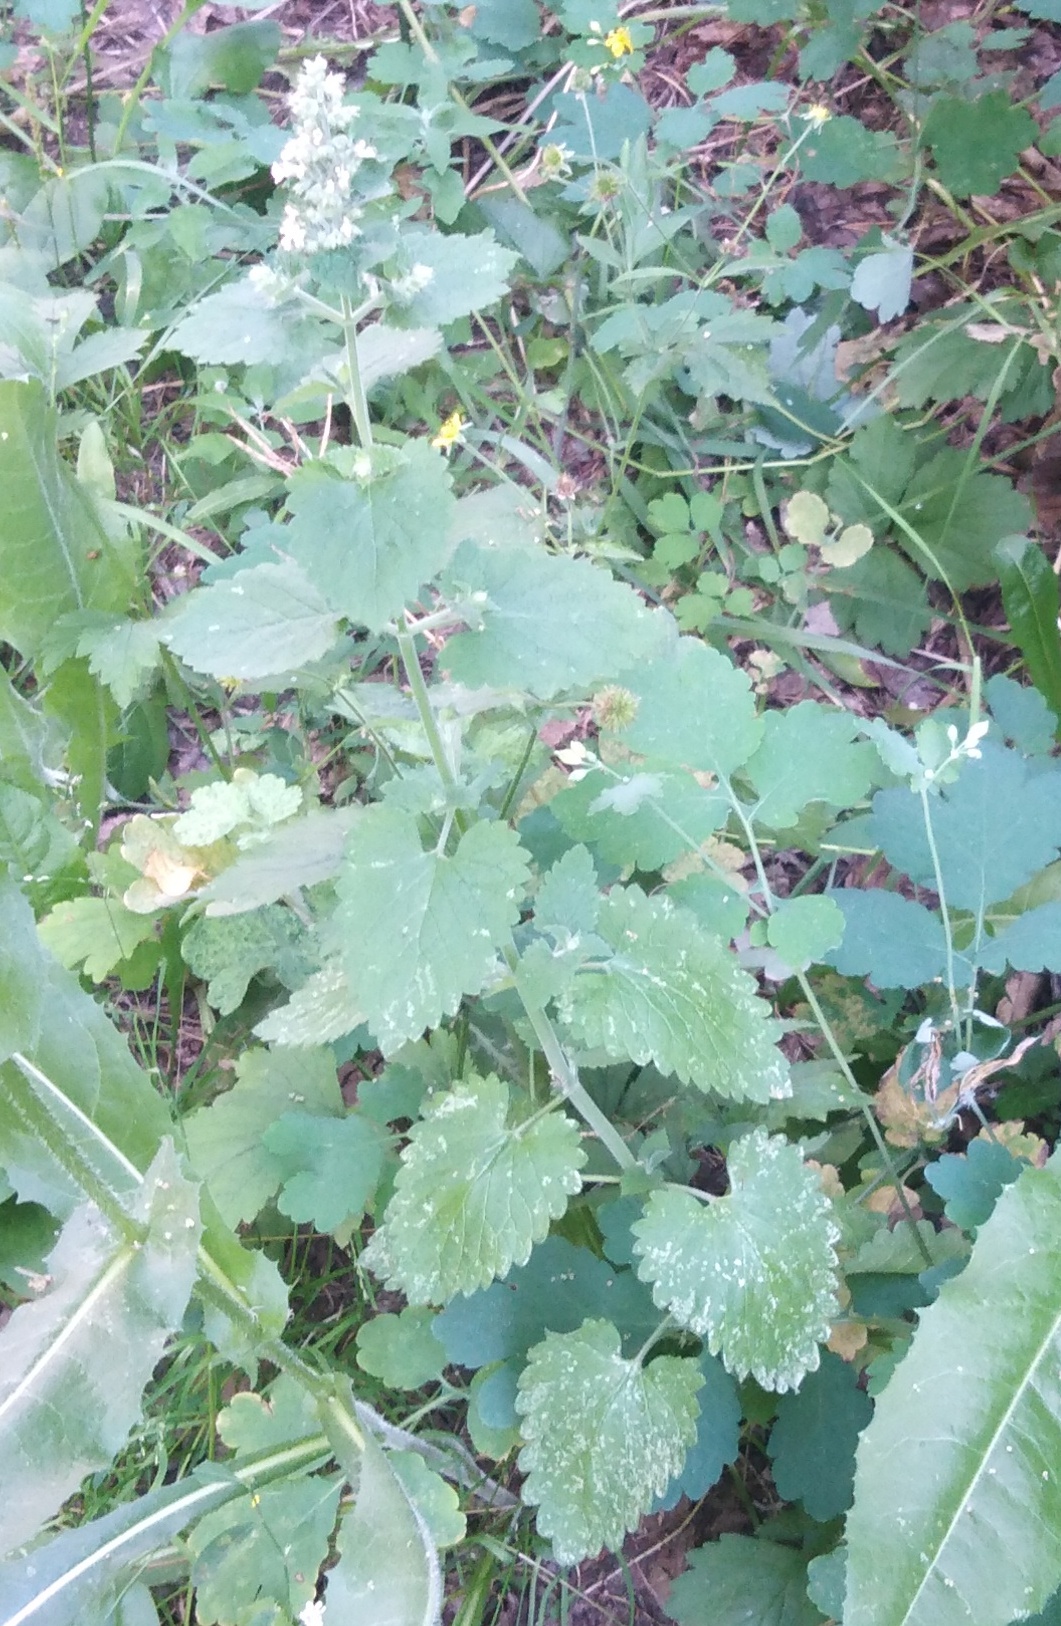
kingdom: Plantae
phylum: Tracheophyta
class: Magnoliopsida
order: Lamiales
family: Lamiaceae
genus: Nepeta
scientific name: Nepeta cataria
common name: Catnip
